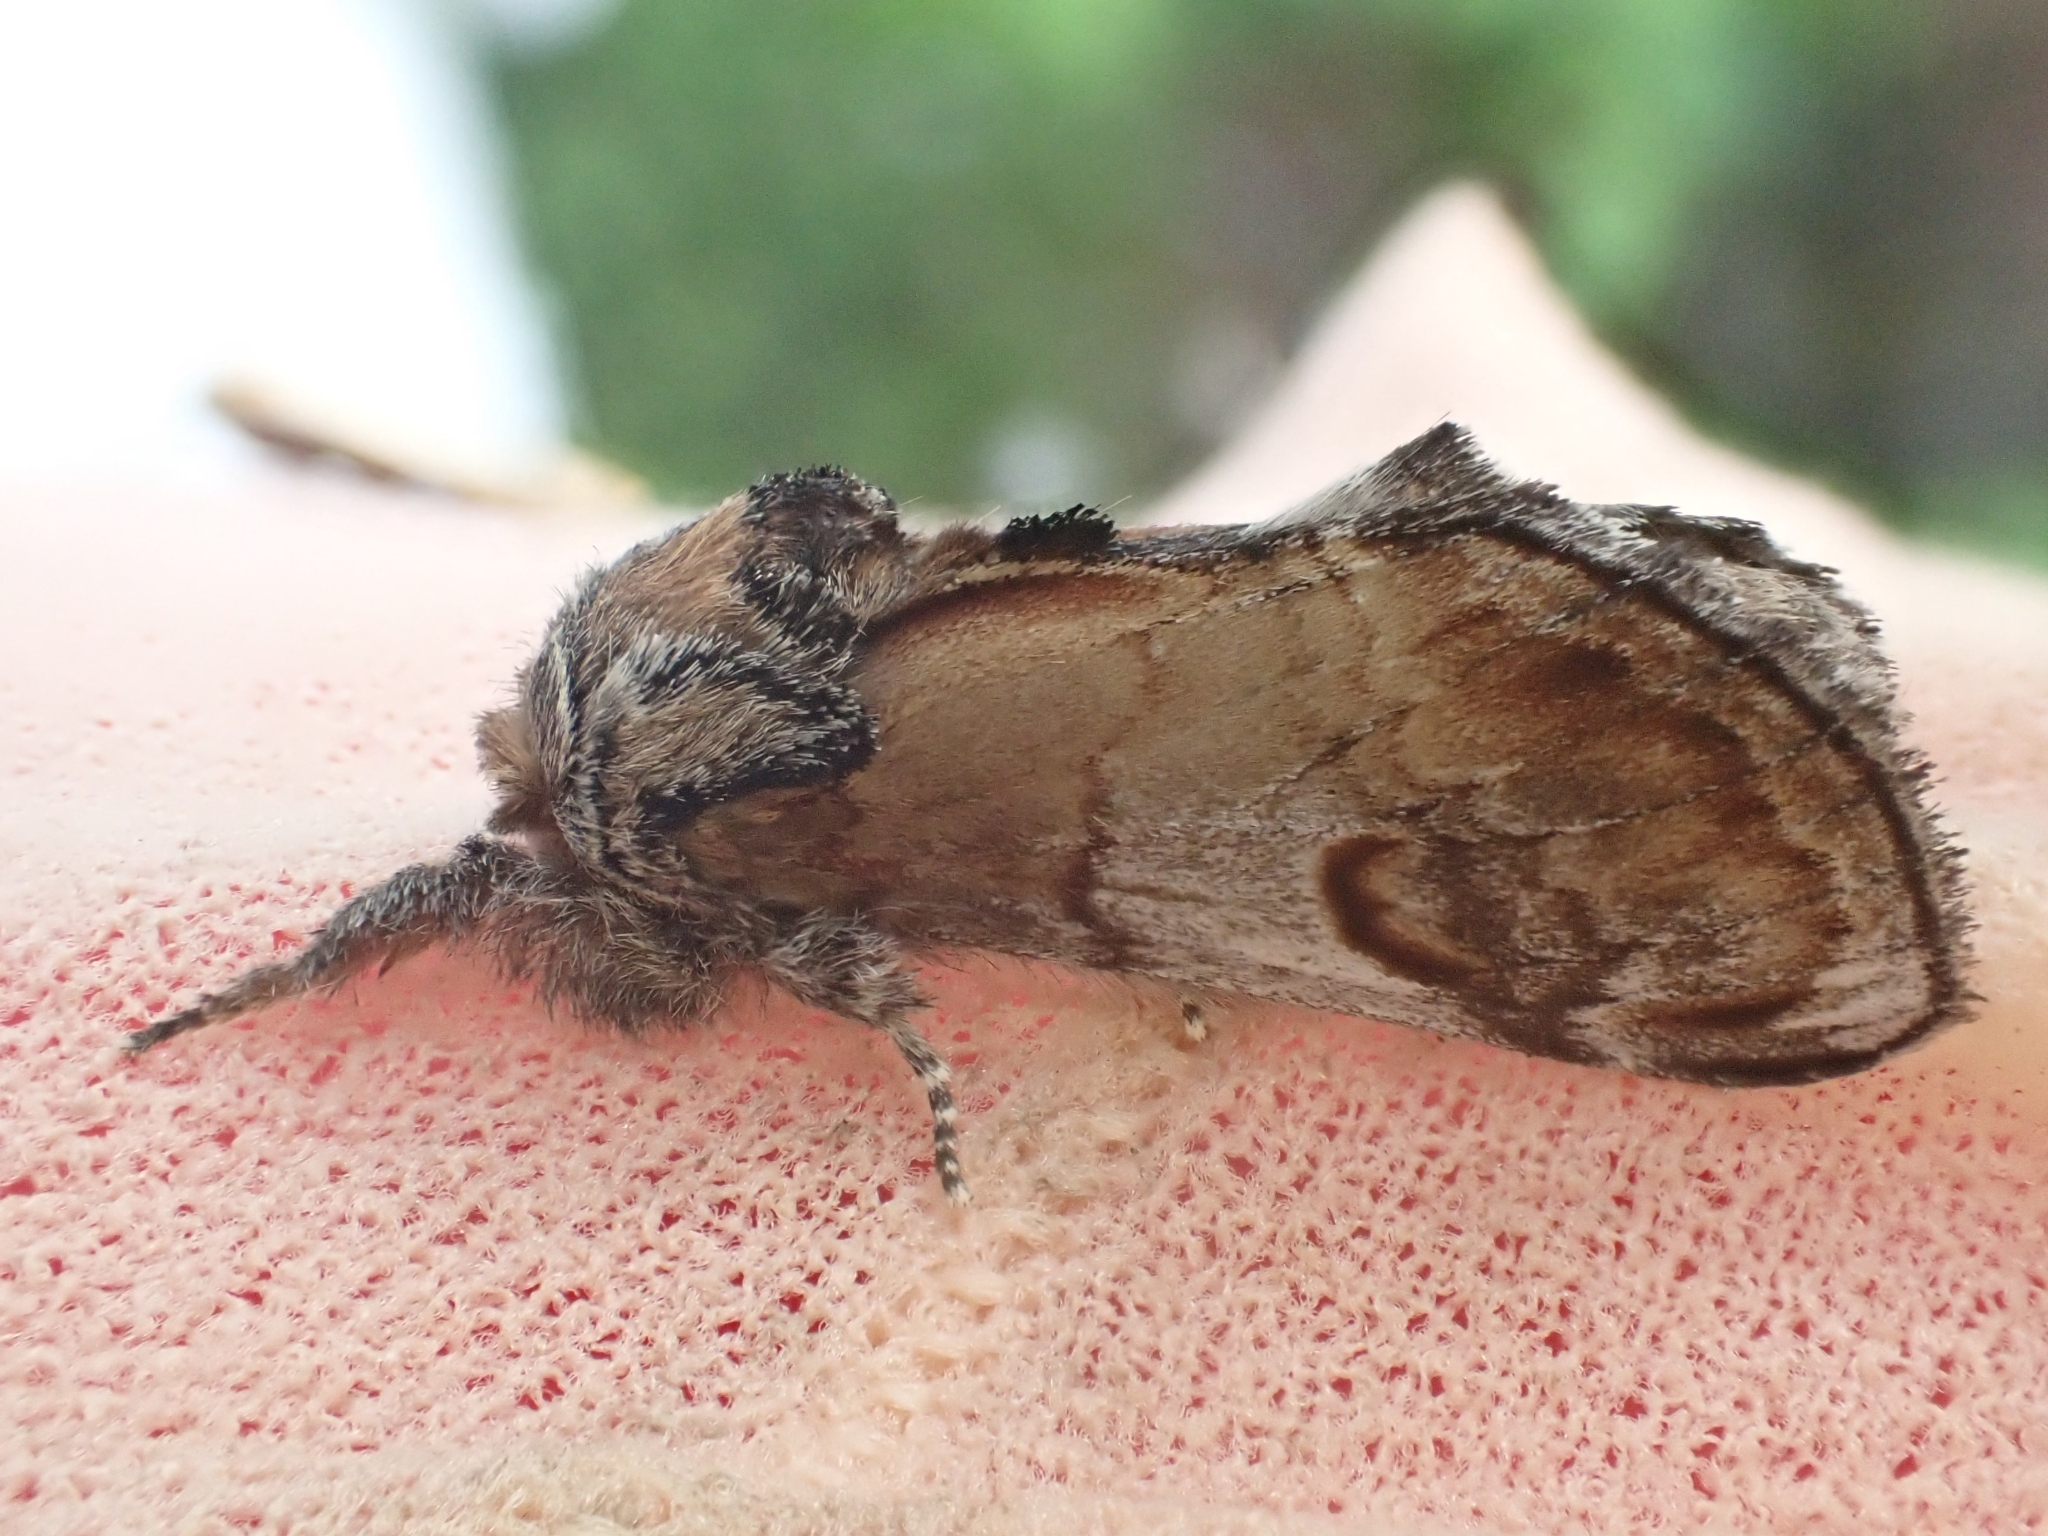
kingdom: Animalia
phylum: Arthropoda
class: Insecta
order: Lepidoptera
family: Notodontidae
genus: Notodonta
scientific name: Notodonta ziczac
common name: Pebble prominent
